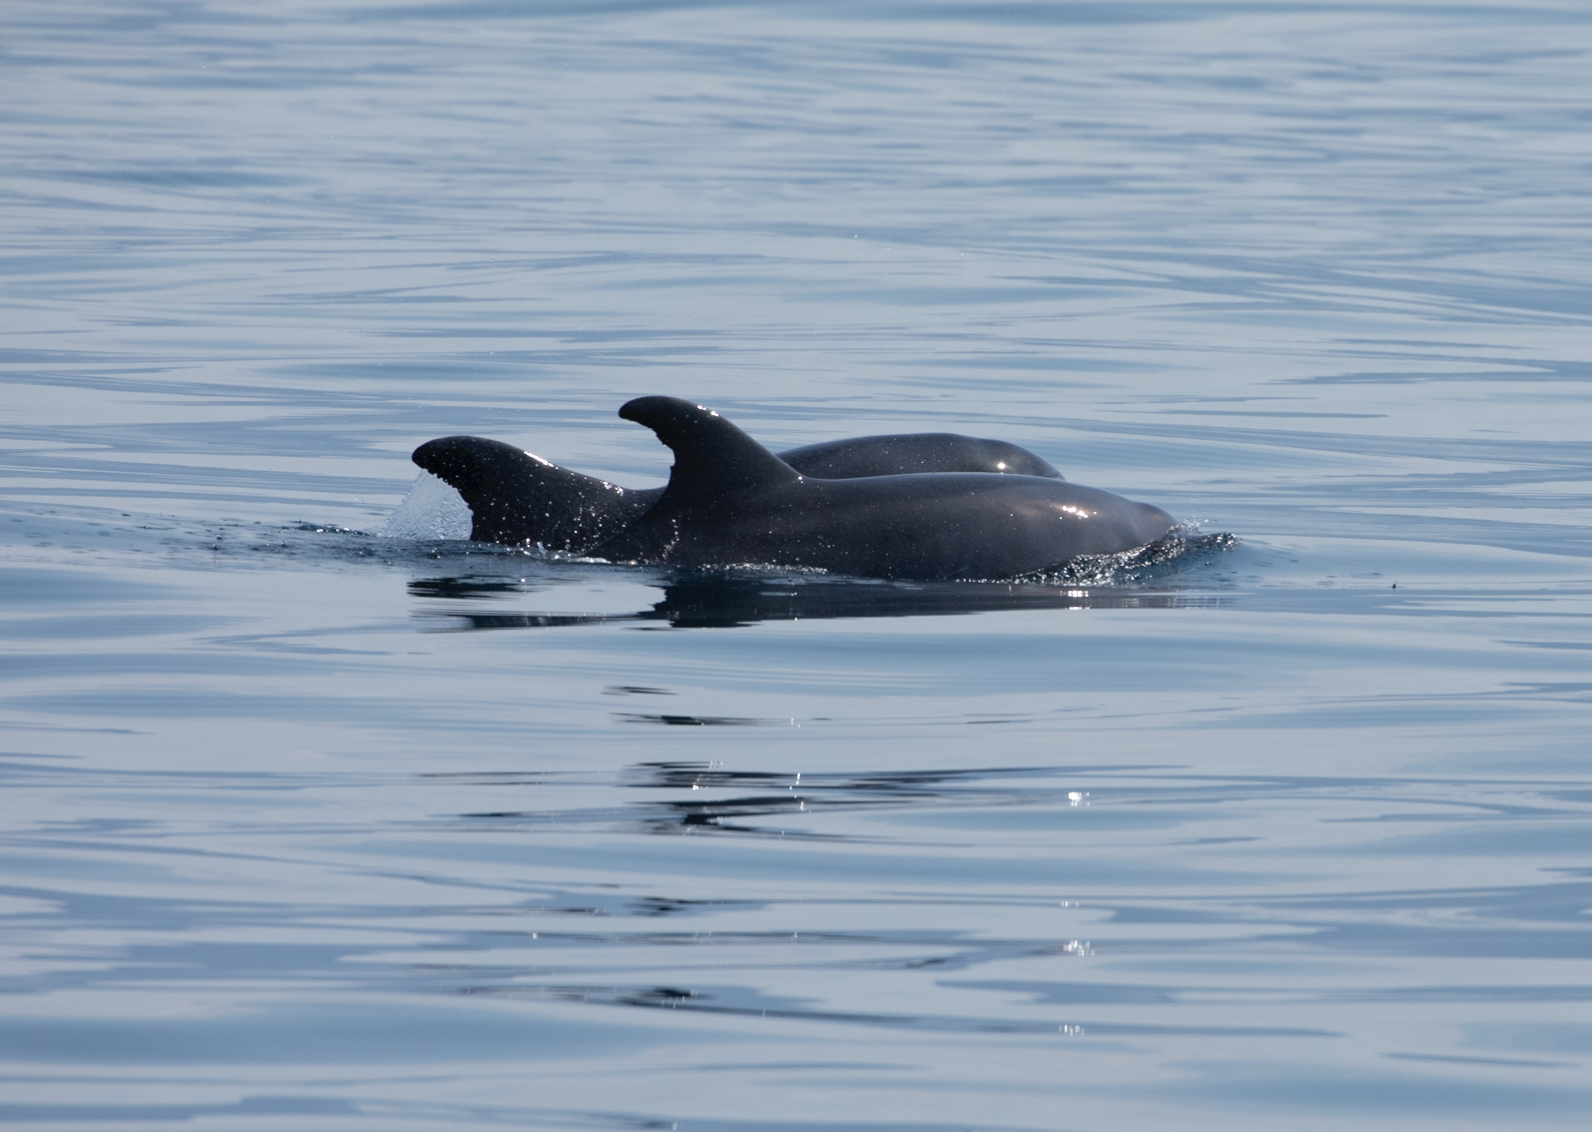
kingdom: Animalia
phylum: Chordata
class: Mammalia
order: Cetacea
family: Delphinidae
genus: Tursiops
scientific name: Tursiops truncatus
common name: Bottlenose dolphin
